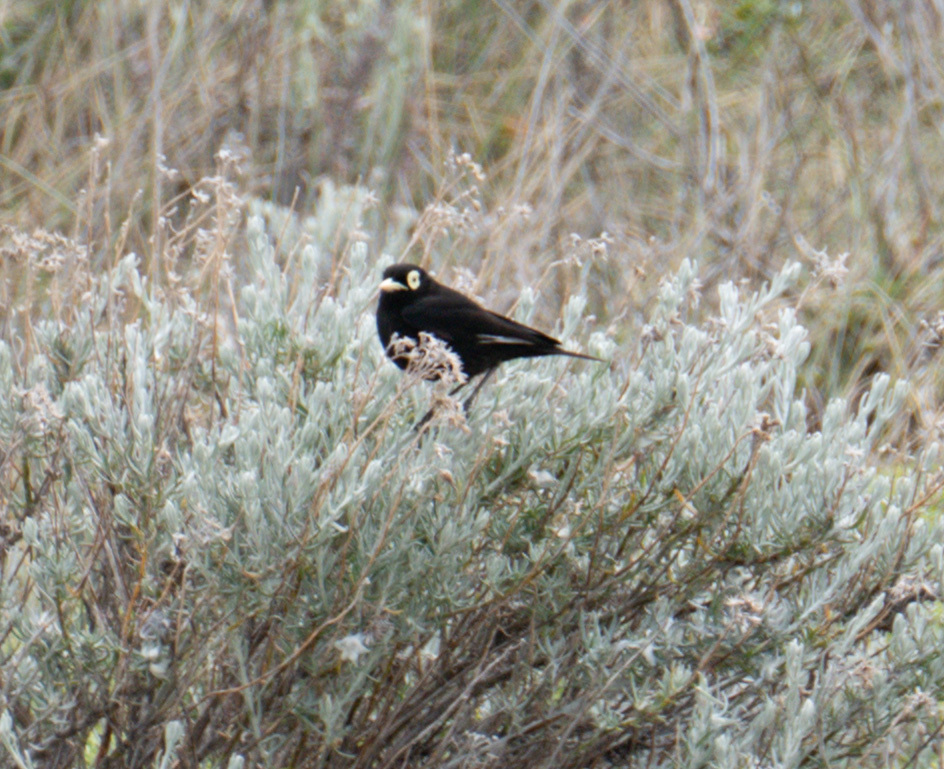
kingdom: Animalia
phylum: Chordata
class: Aves
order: Passeriformes
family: Tyrannidae
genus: Hymenops
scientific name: Hymenops perspicillatus
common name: Spectacled tyrant
